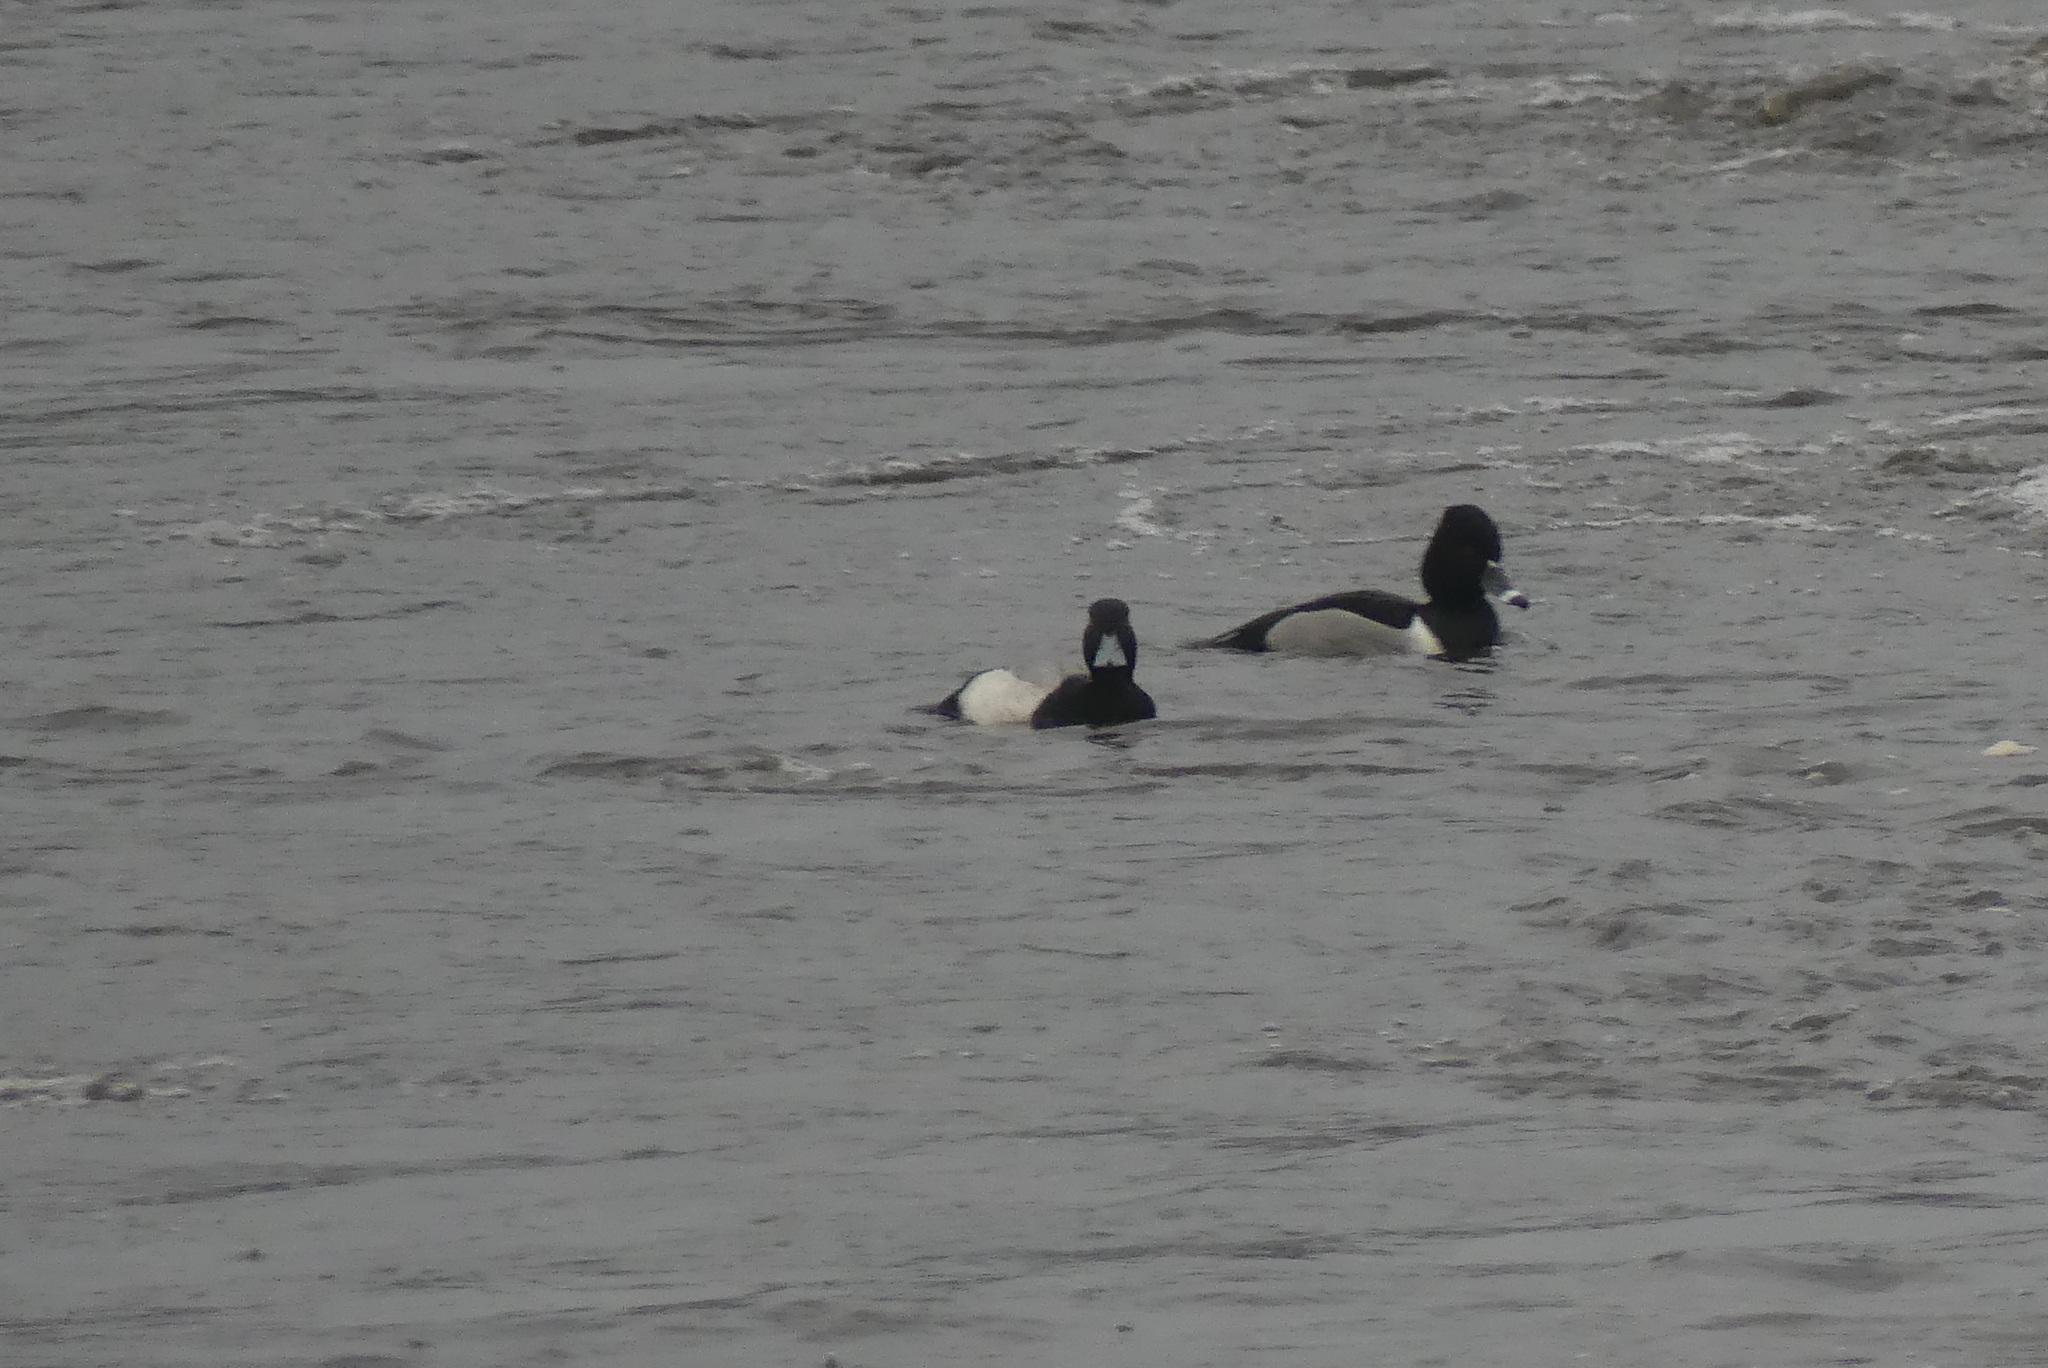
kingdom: Animalia
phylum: Chordata
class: Aves
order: Anseriformes
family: Anatidae
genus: Aythya
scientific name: Aythya collaris
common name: Ring-necked duck
